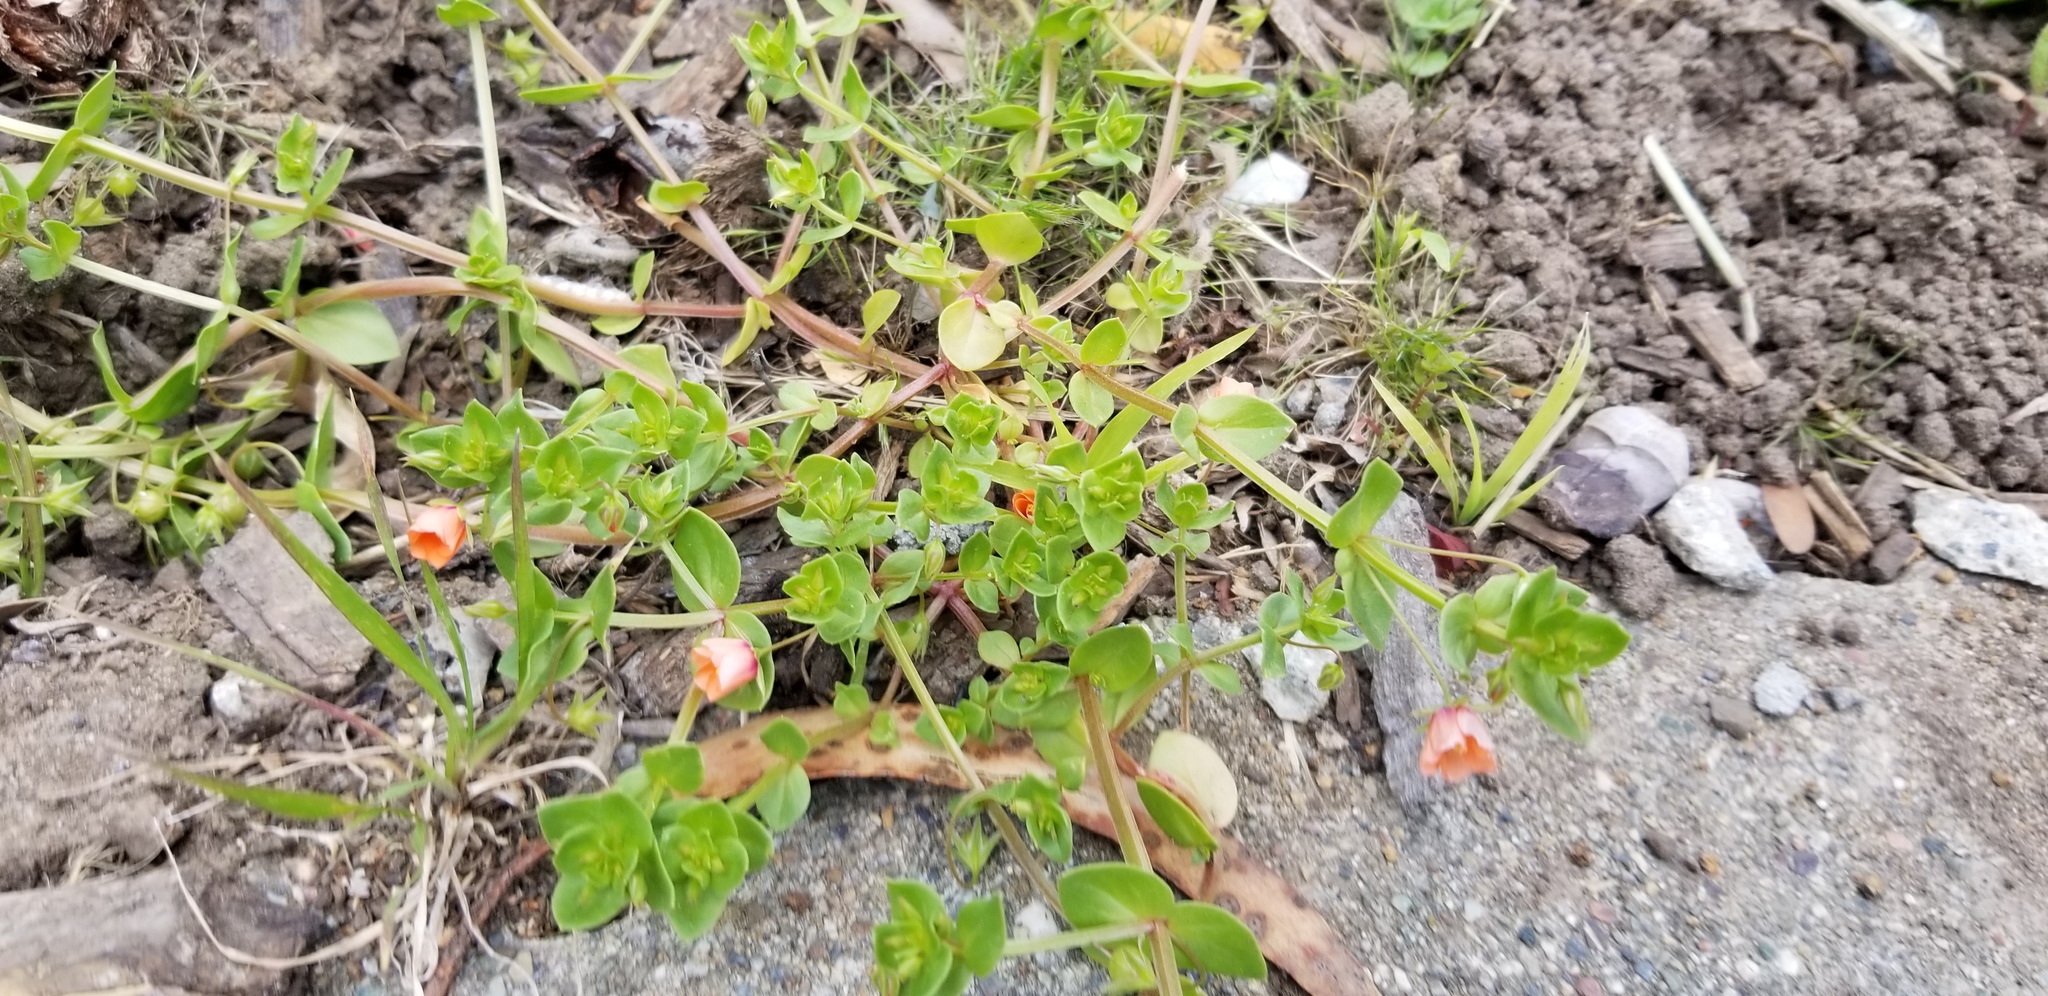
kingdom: Plantae
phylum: Tracheophyta
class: Magnoliopsida
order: Ericales
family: Primulaceae
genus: Lysimachia
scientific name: Lysimachia arvensis
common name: Scarlet pimpernel
